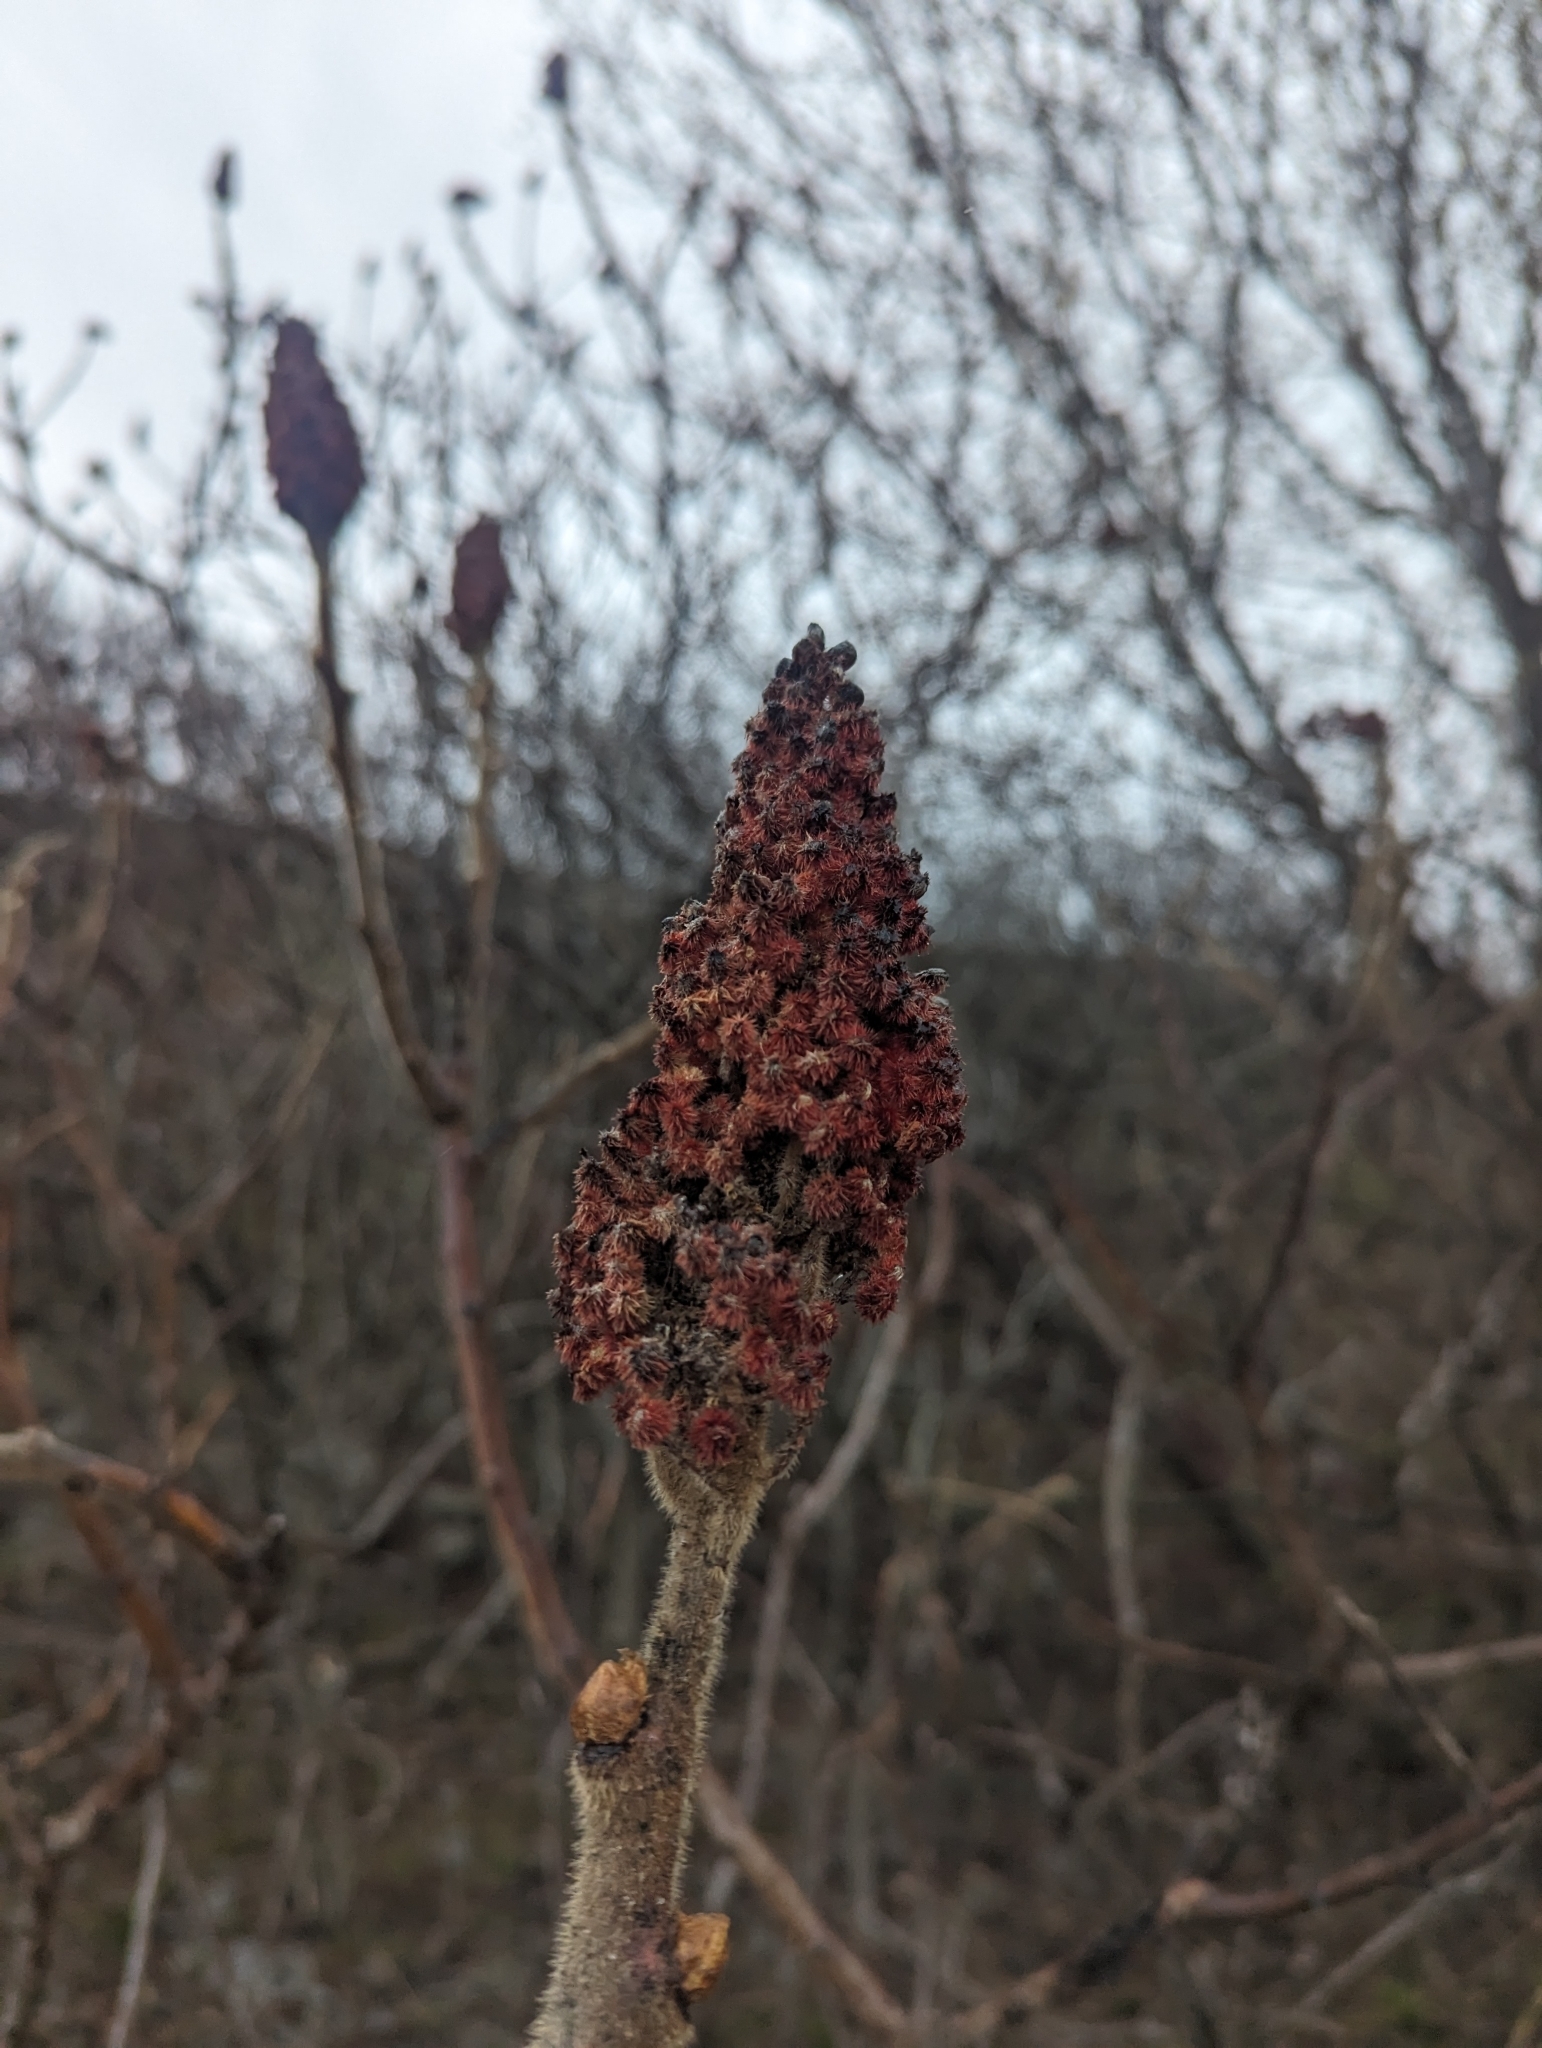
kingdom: Plantae
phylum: Tracheophyta
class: Magnoliopsida
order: Sapindales
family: Anacardiaceae
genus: Rhus
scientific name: Rhus typhina
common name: Staghorn sumac
